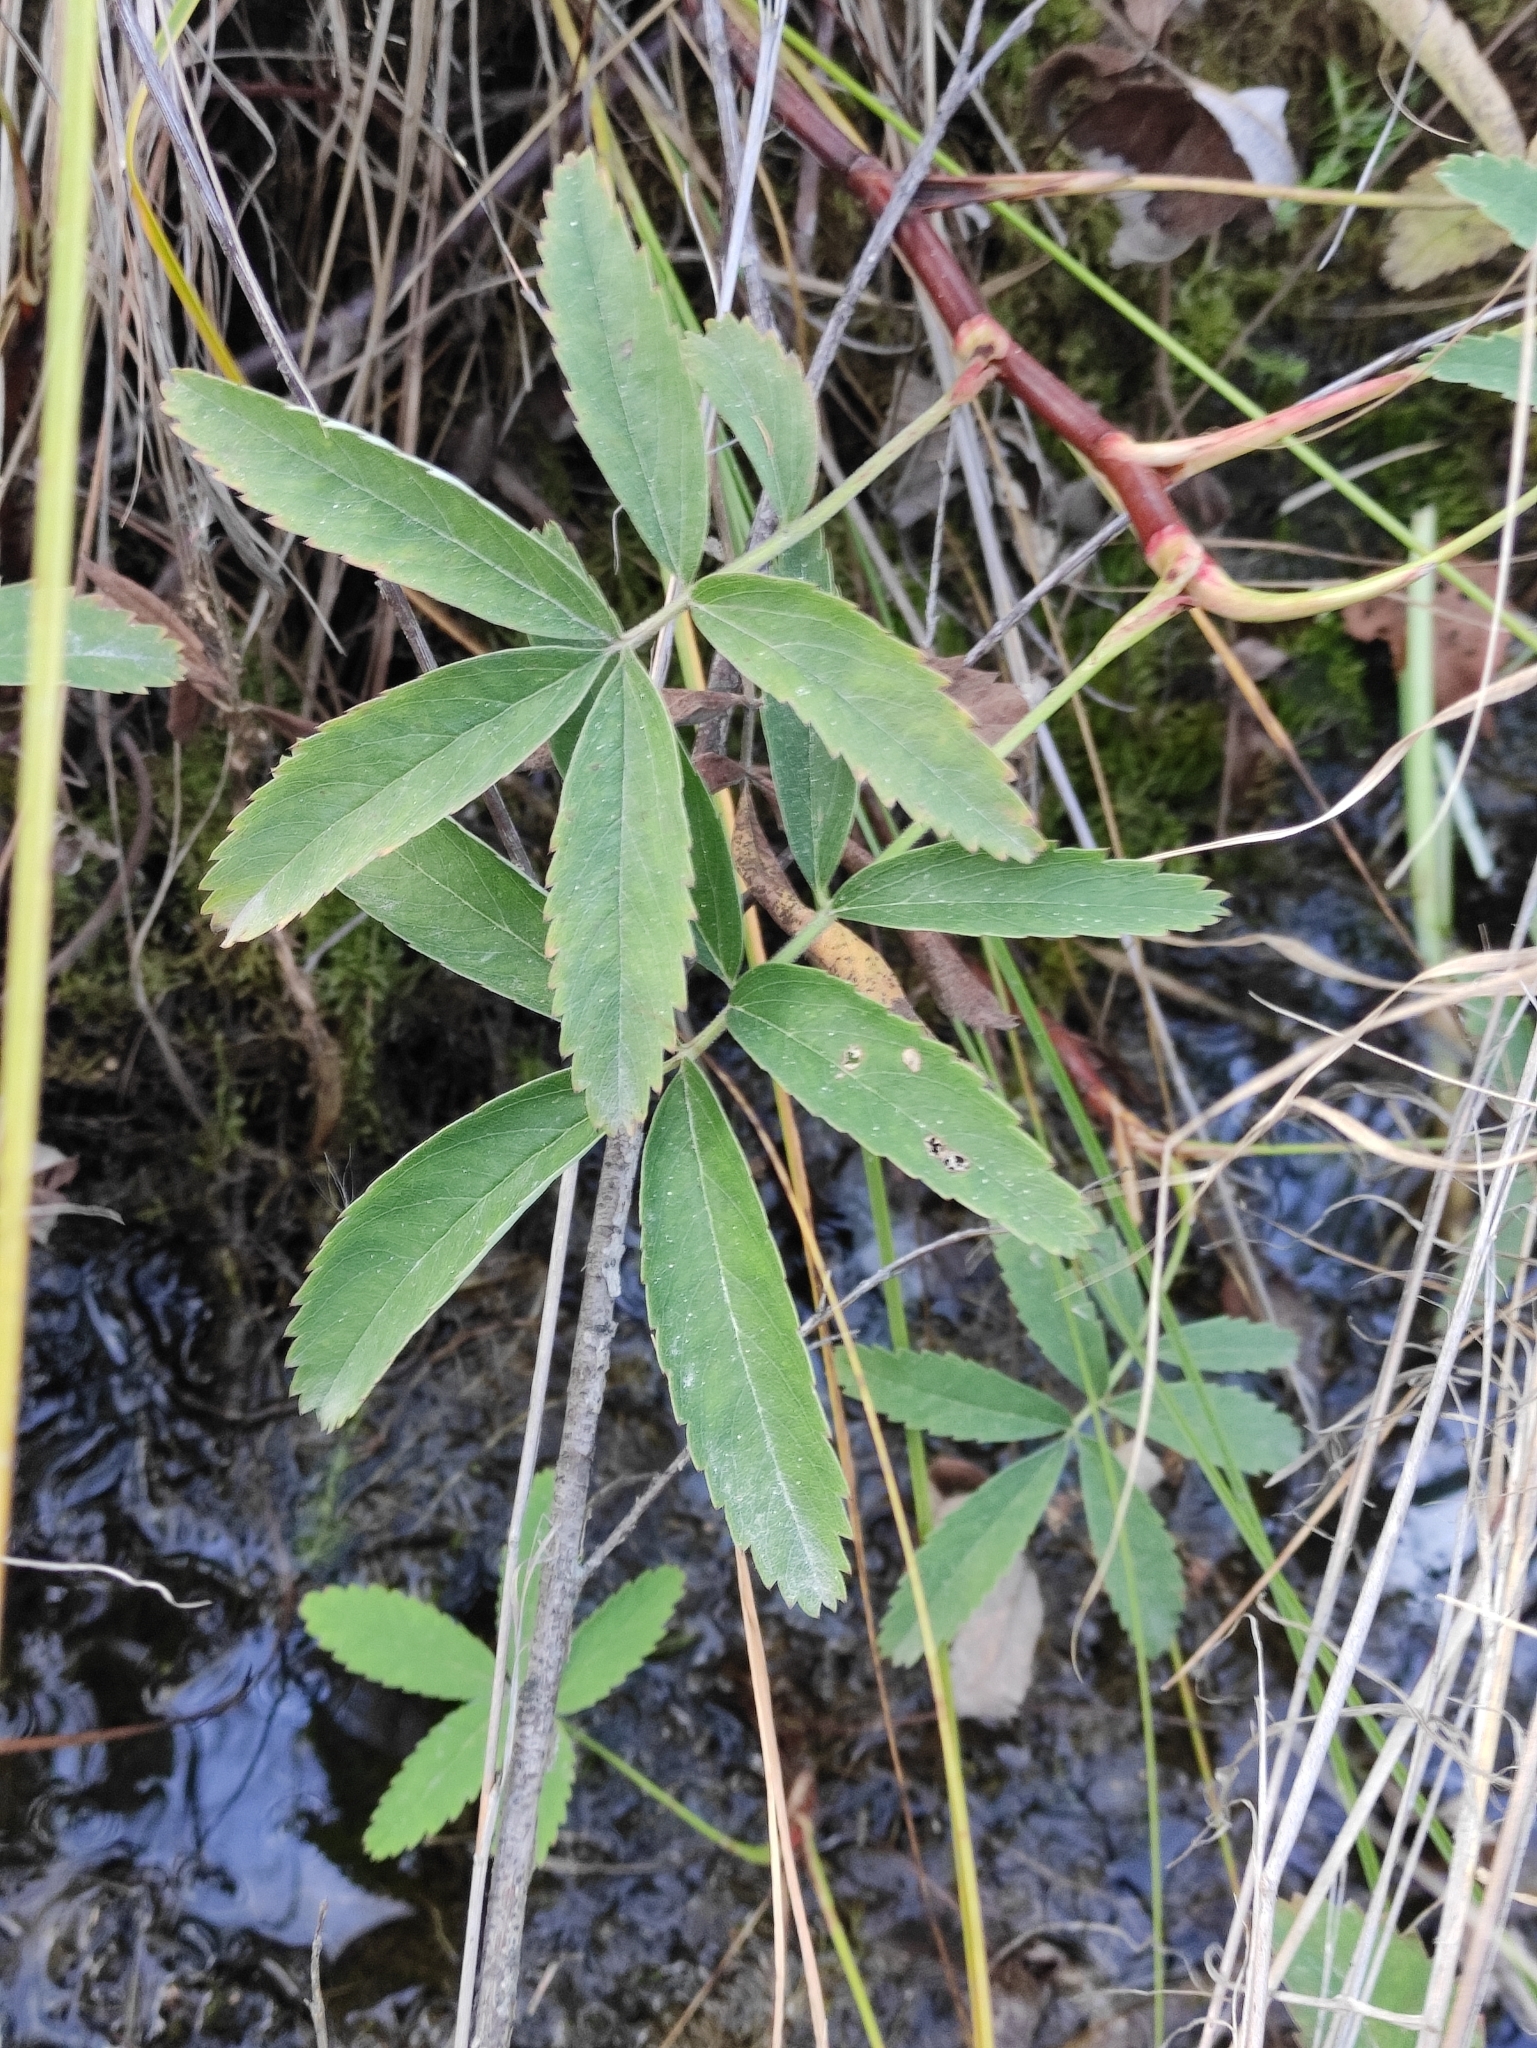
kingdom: Plantae
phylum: Tracheophyta
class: Magnoliopsida
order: Rosales
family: Rosaceae
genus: Comarum
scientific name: Comarum palustre
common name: Marsh cinquefoil
